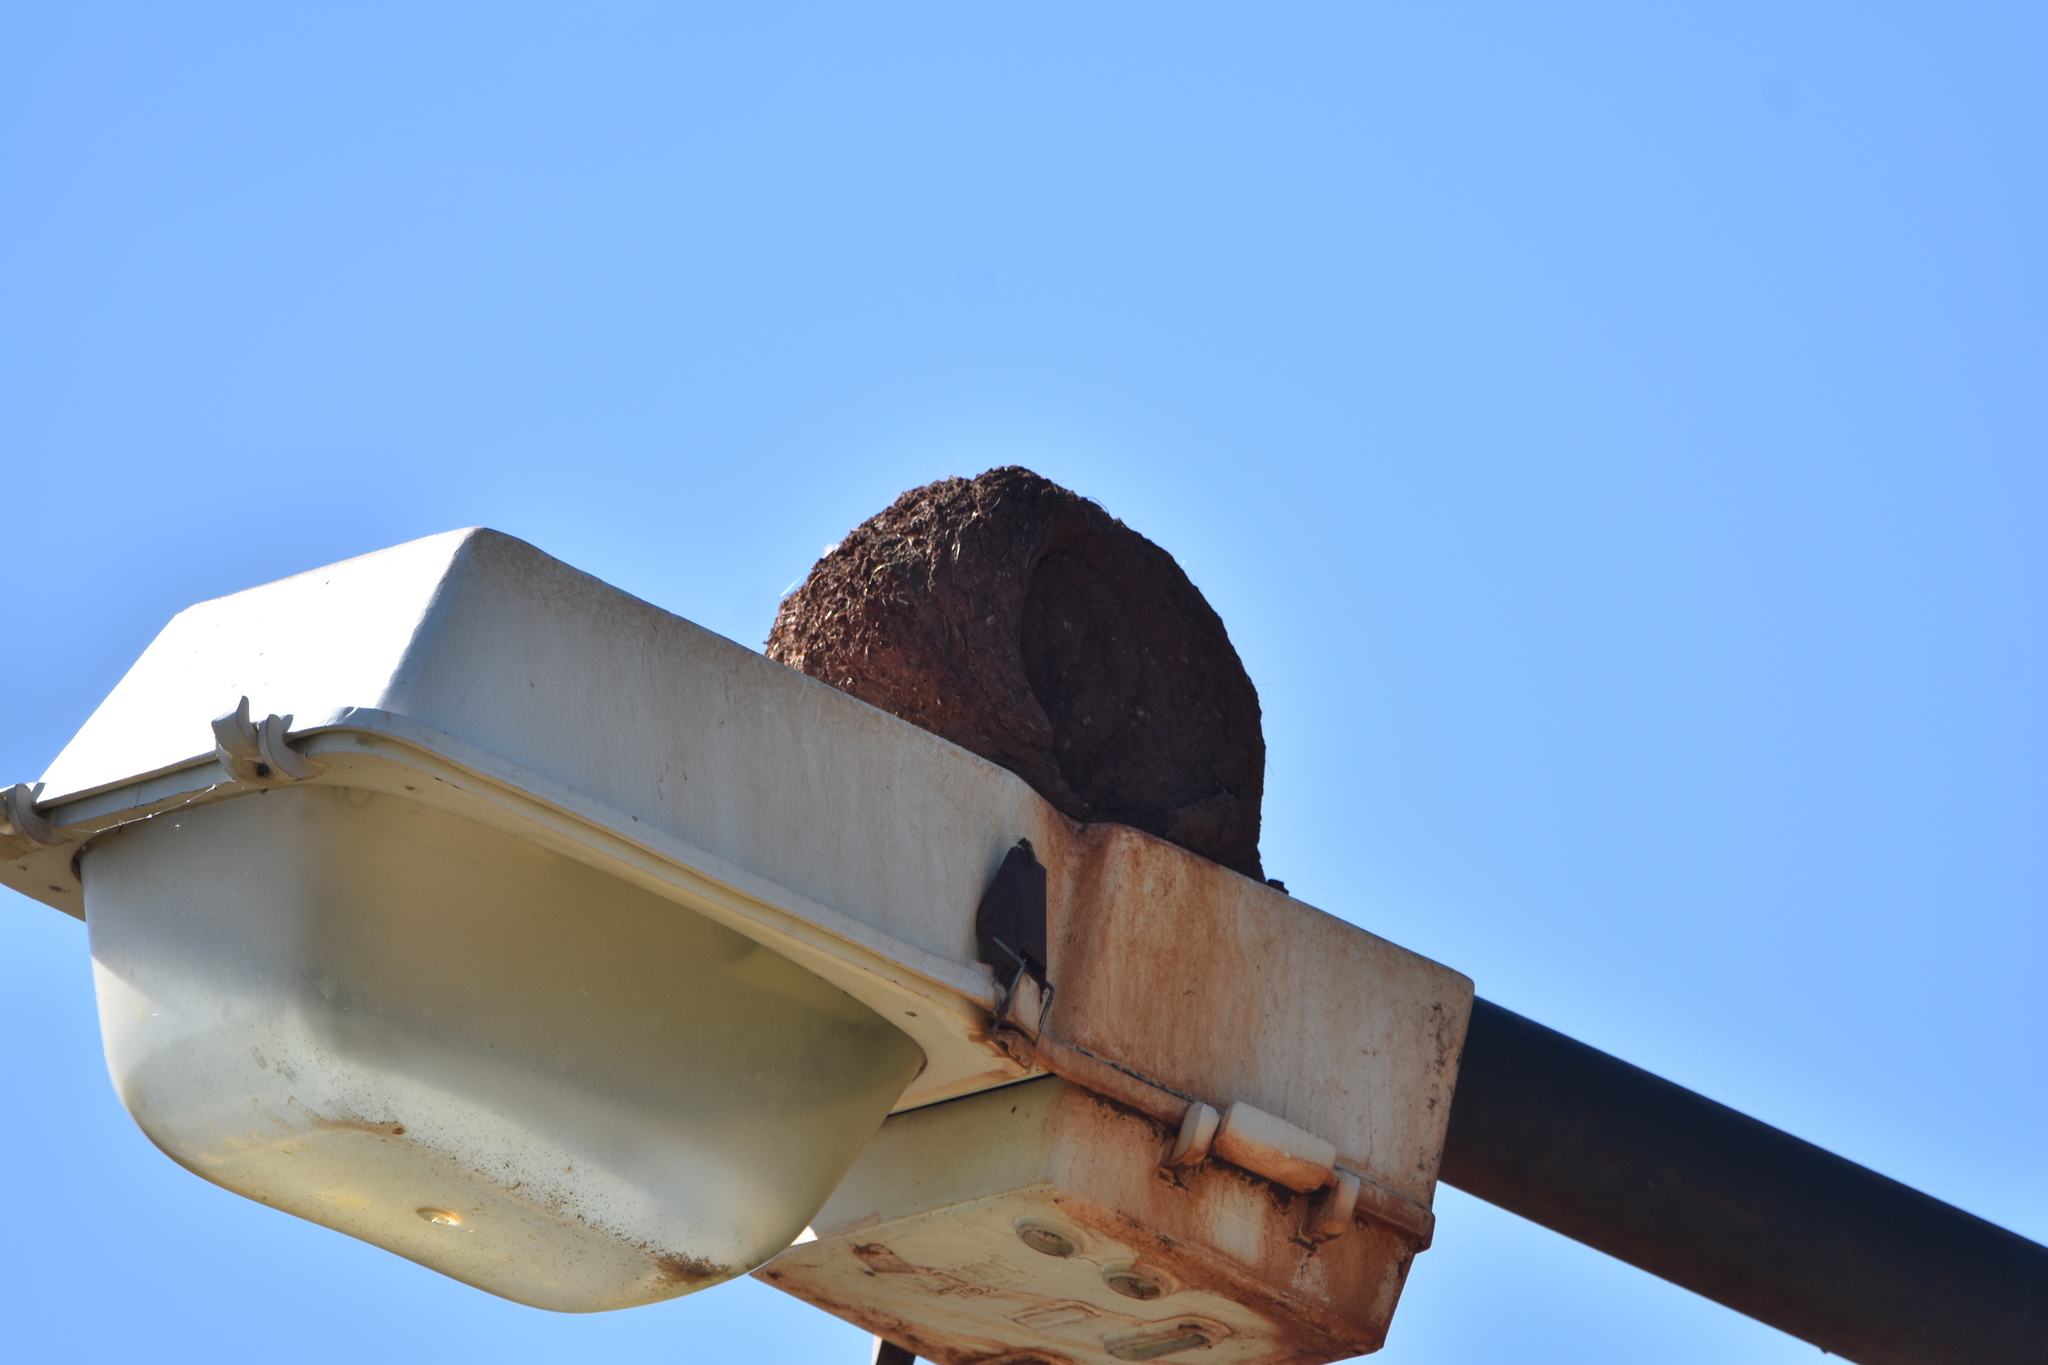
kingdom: Animalia
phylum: Chordata
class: Aves
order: Passeriformes
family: Furnariidae
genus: Furnarius
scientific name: Furnarius rufus
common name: Rufous hornero
